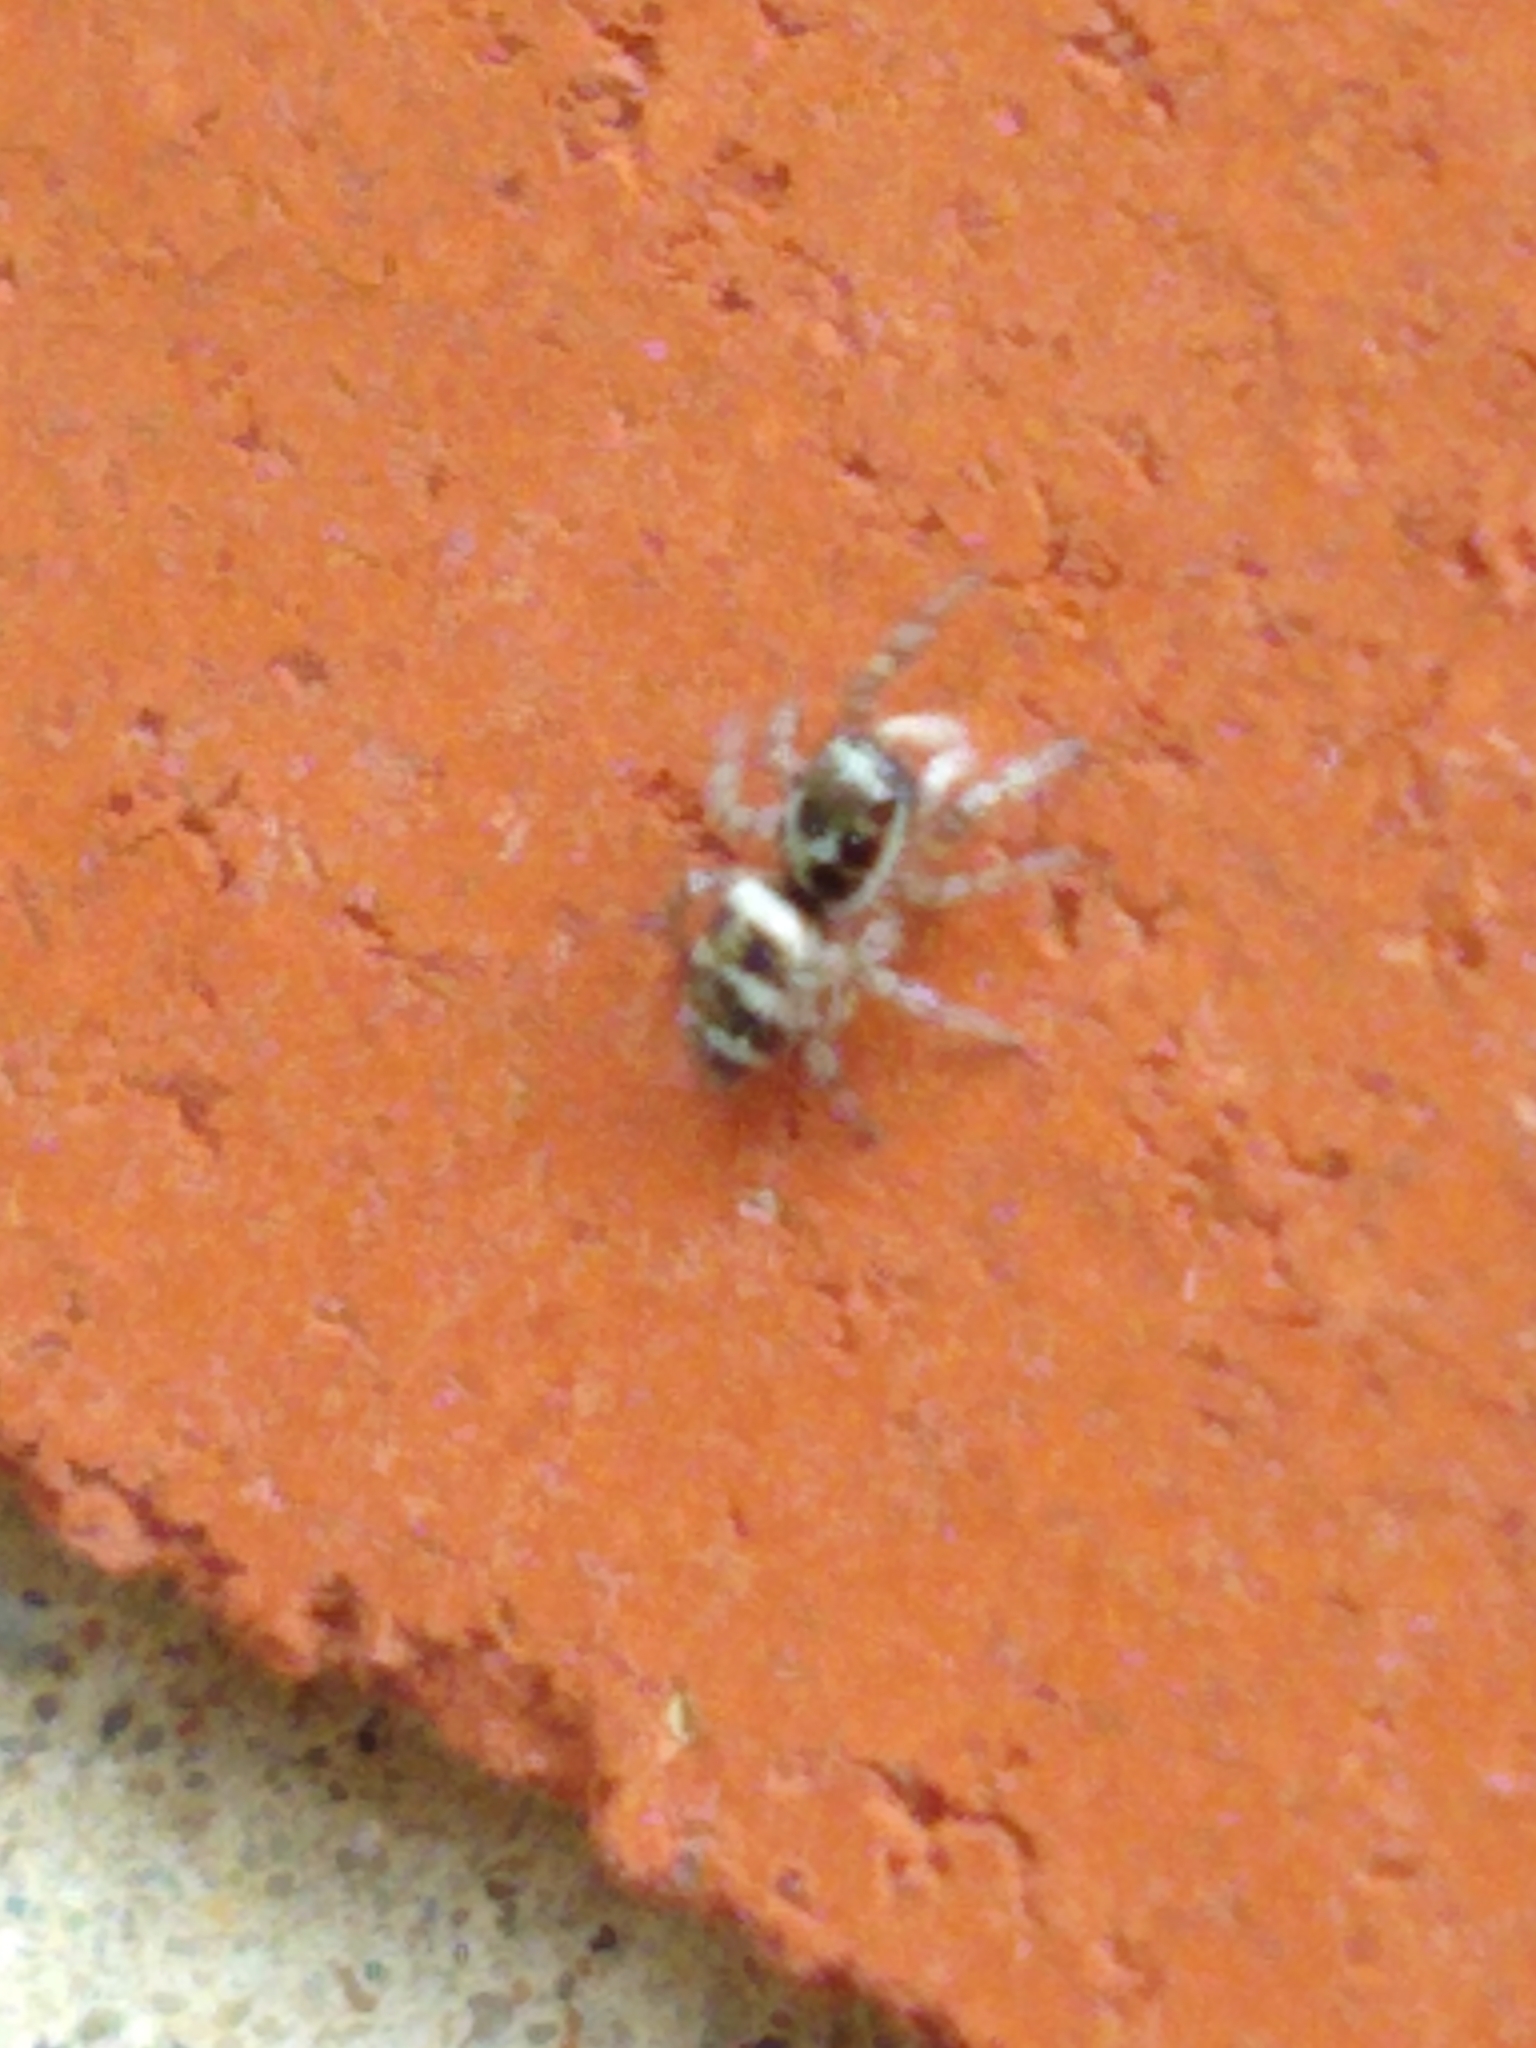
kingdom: Animalia
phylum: Arthropoda
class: Arachnida
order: Araneae
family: Salticidae
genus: Salticus
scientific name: Salticus scenicus
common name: Zebra jumper
